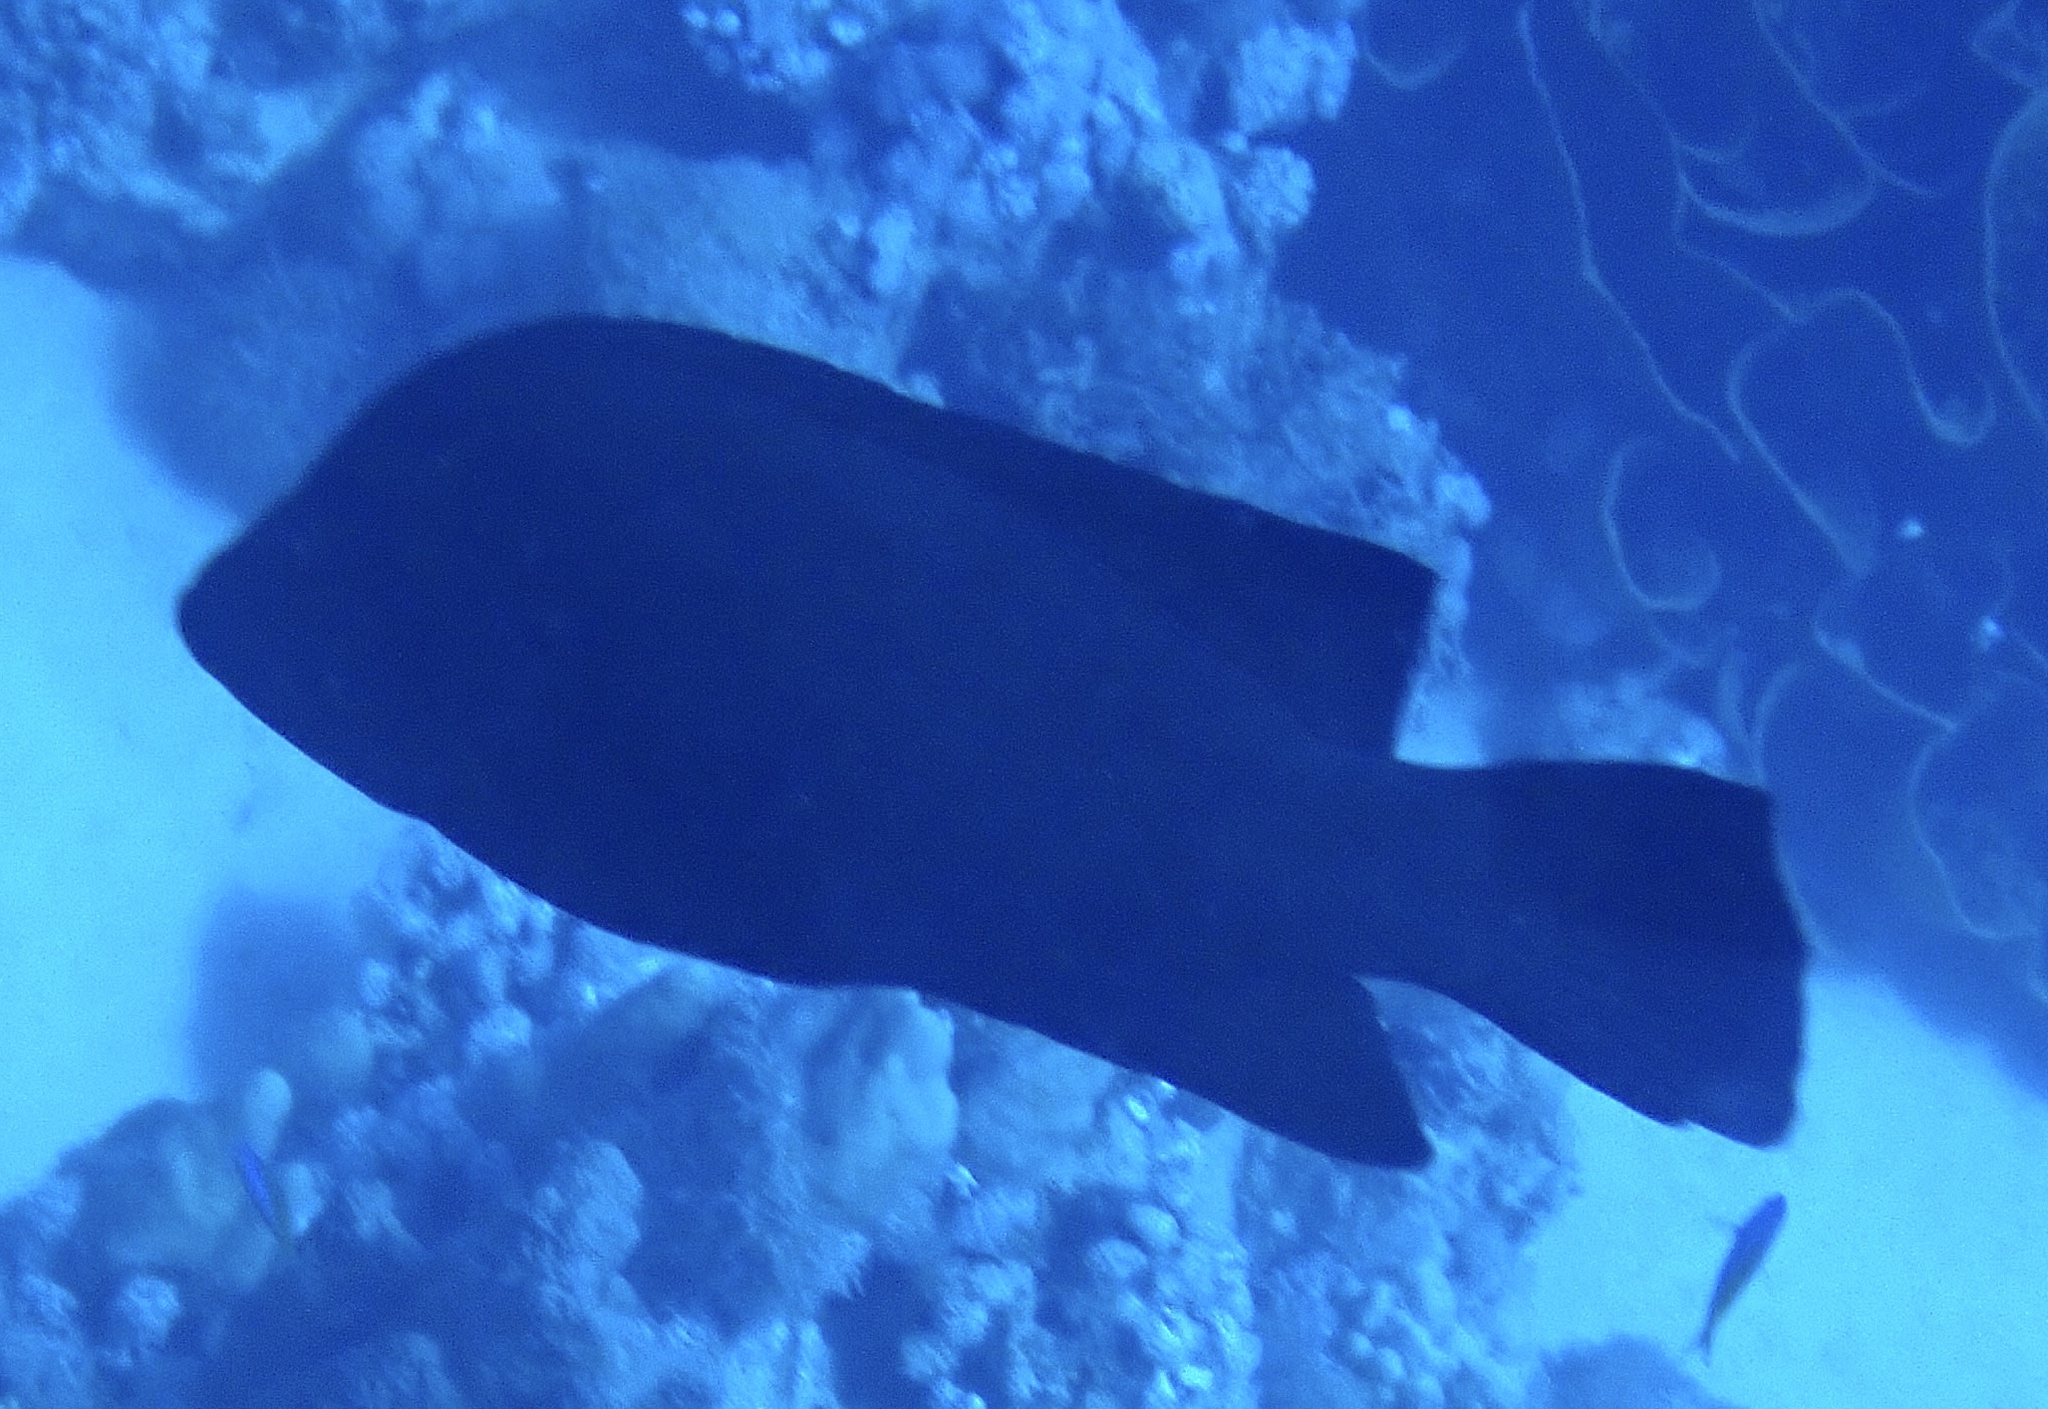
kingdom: Animalia
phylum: Chordata
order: Perciformes
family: Serranidae
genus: Aethaloperca
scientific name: Aethaloperca rogaa
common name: Redmouth grouper
